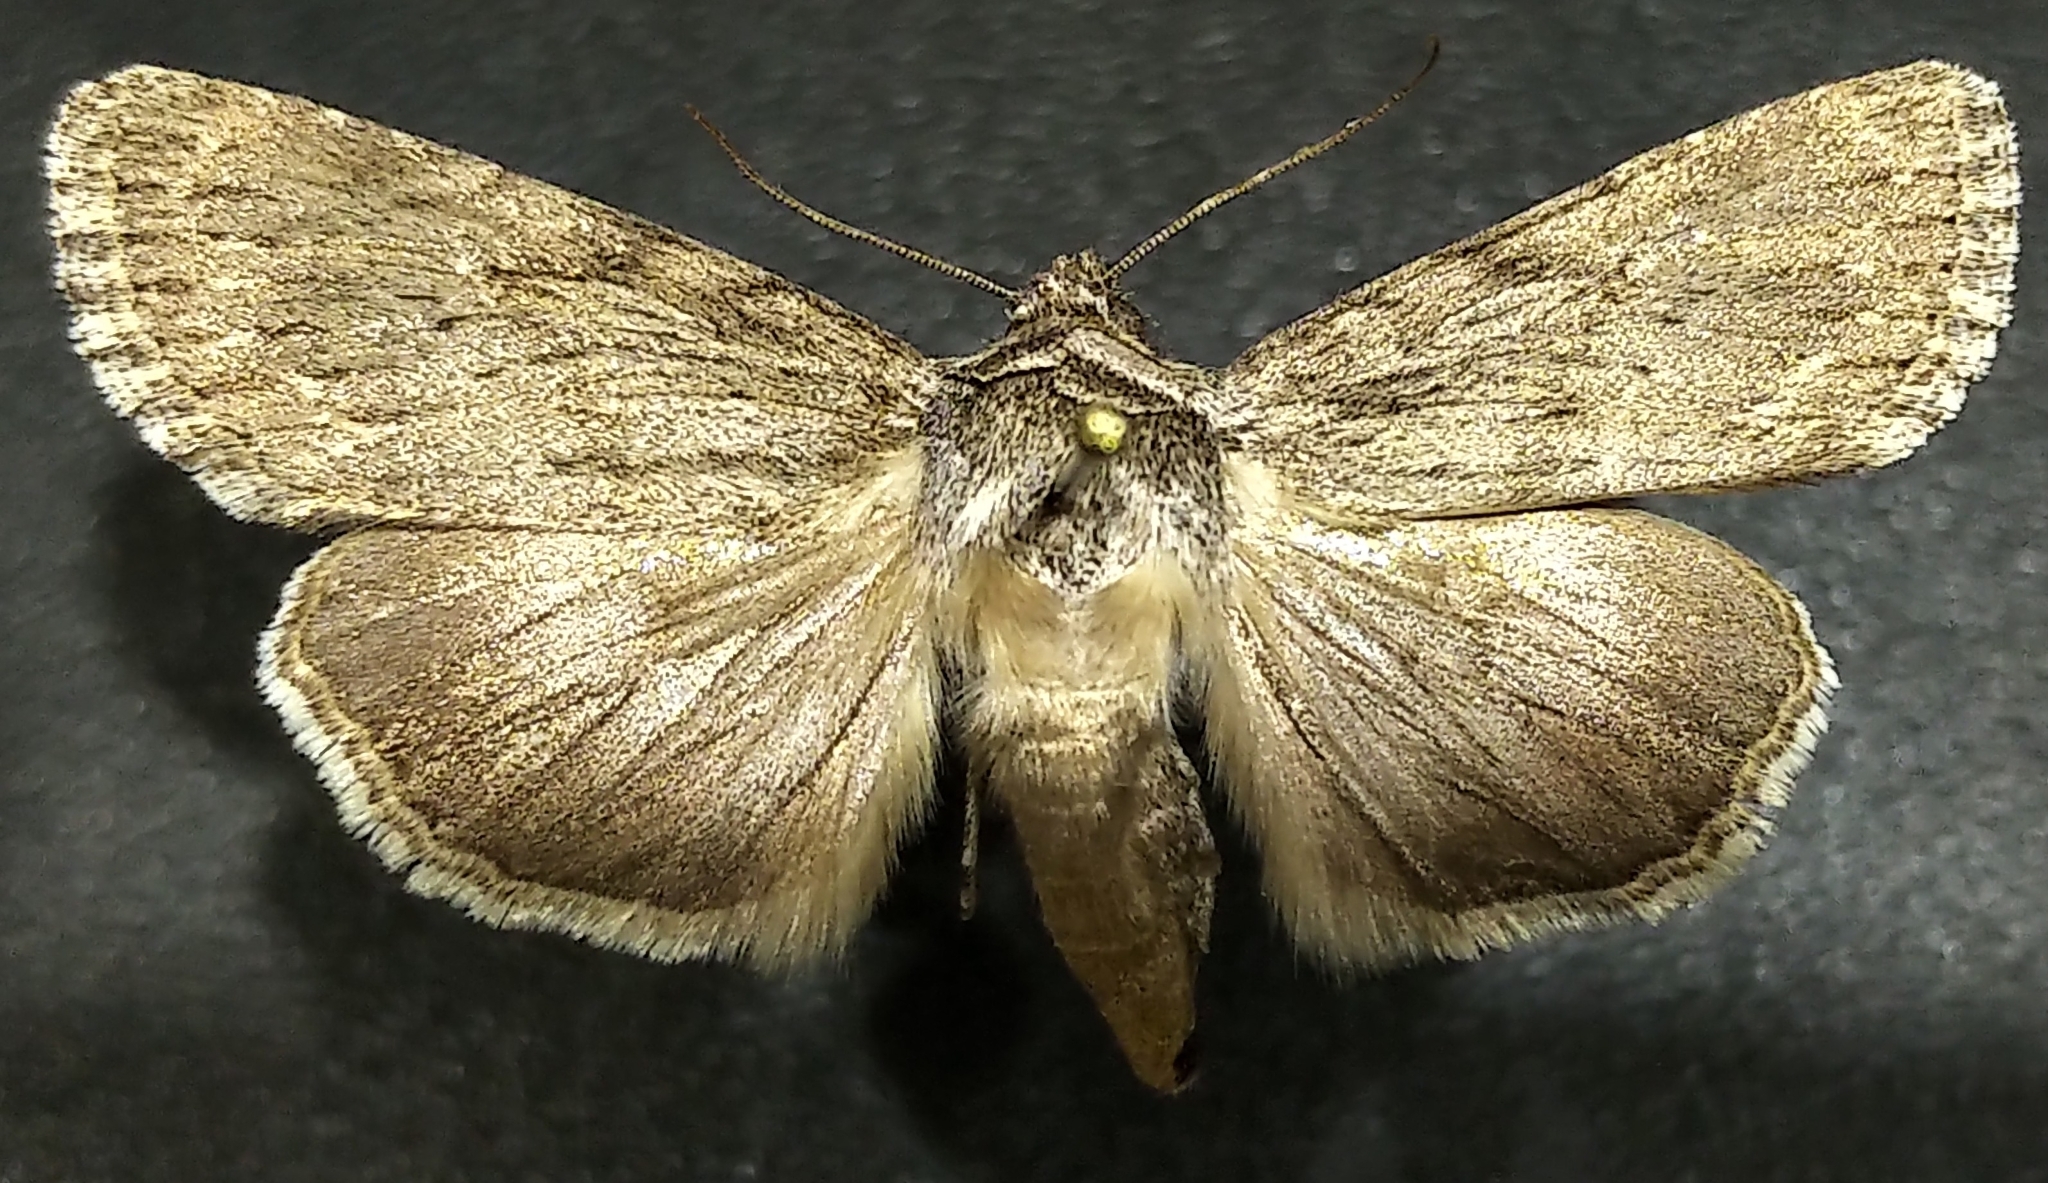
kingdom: Animalia
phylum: Arthropoda
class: Insecta
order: Lepidoptera
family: Noctuidae
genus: Sympistis
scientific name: Sympistis chons
